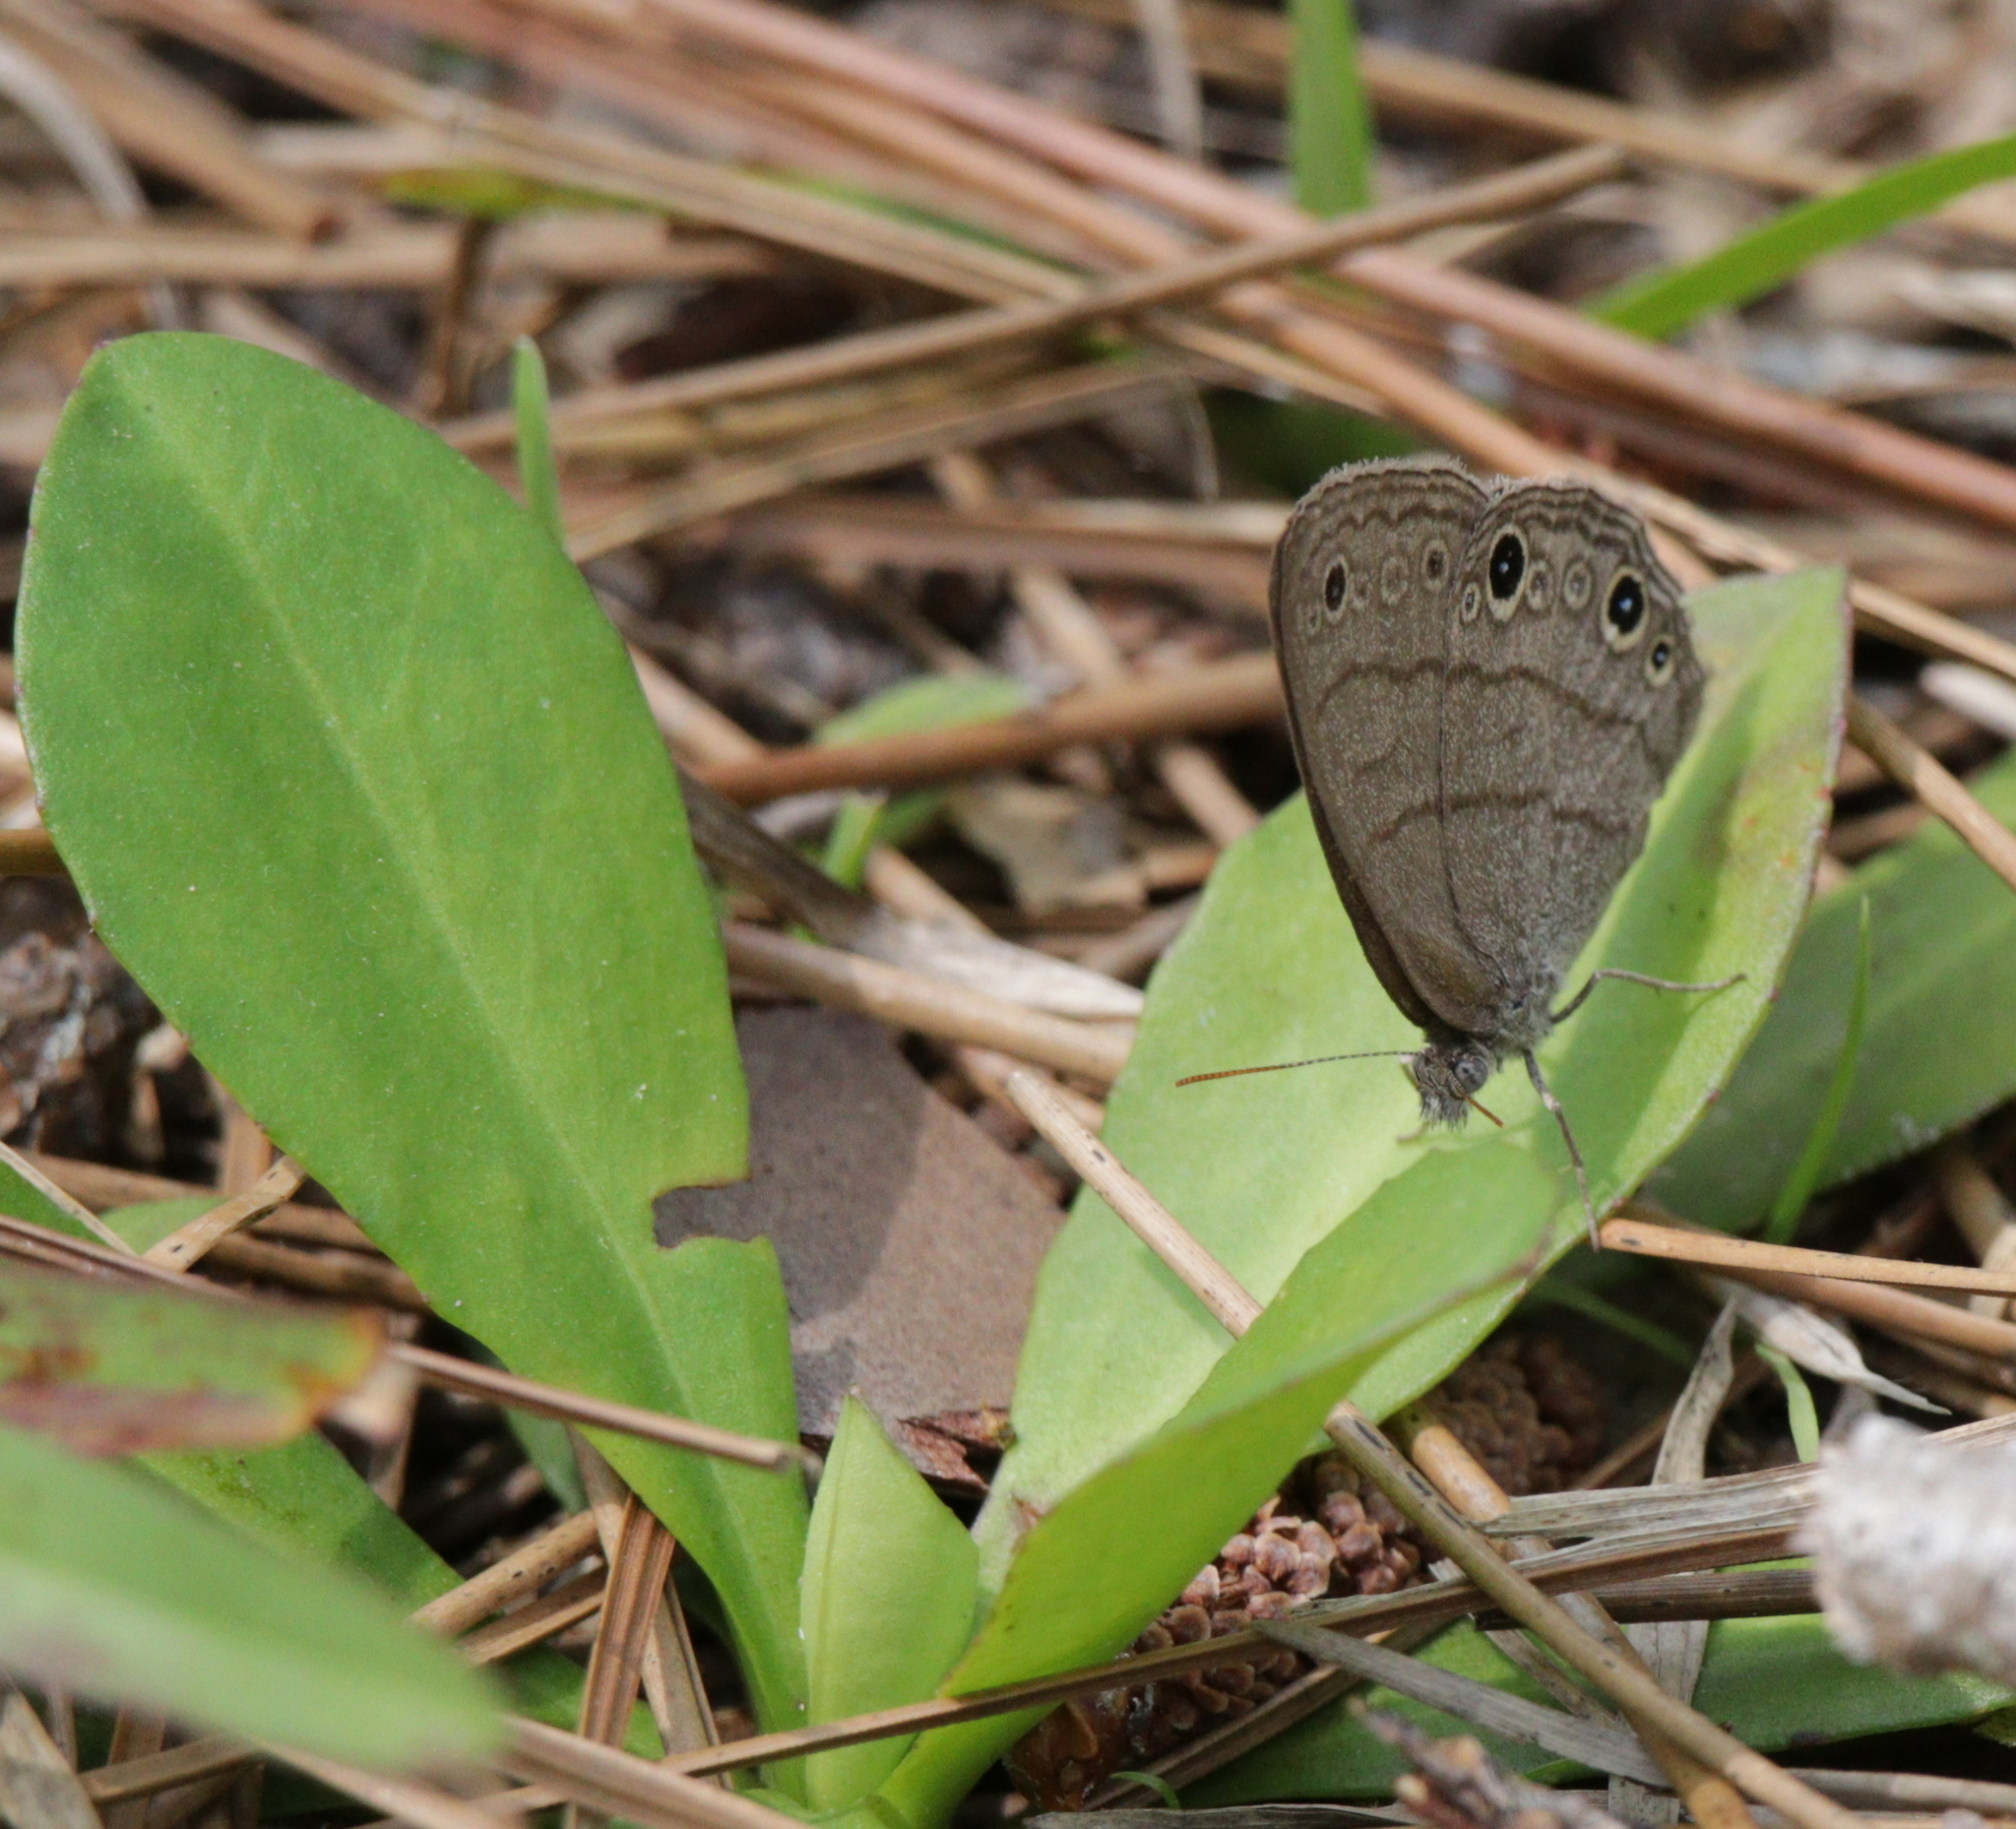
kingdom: Animalia
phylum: Arthropoda
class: Insecta
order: Lepidoptera
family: Nymphalidae
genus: Hermeuptychia
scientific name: Hermeuptychia hermes
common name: Hermes satyr
